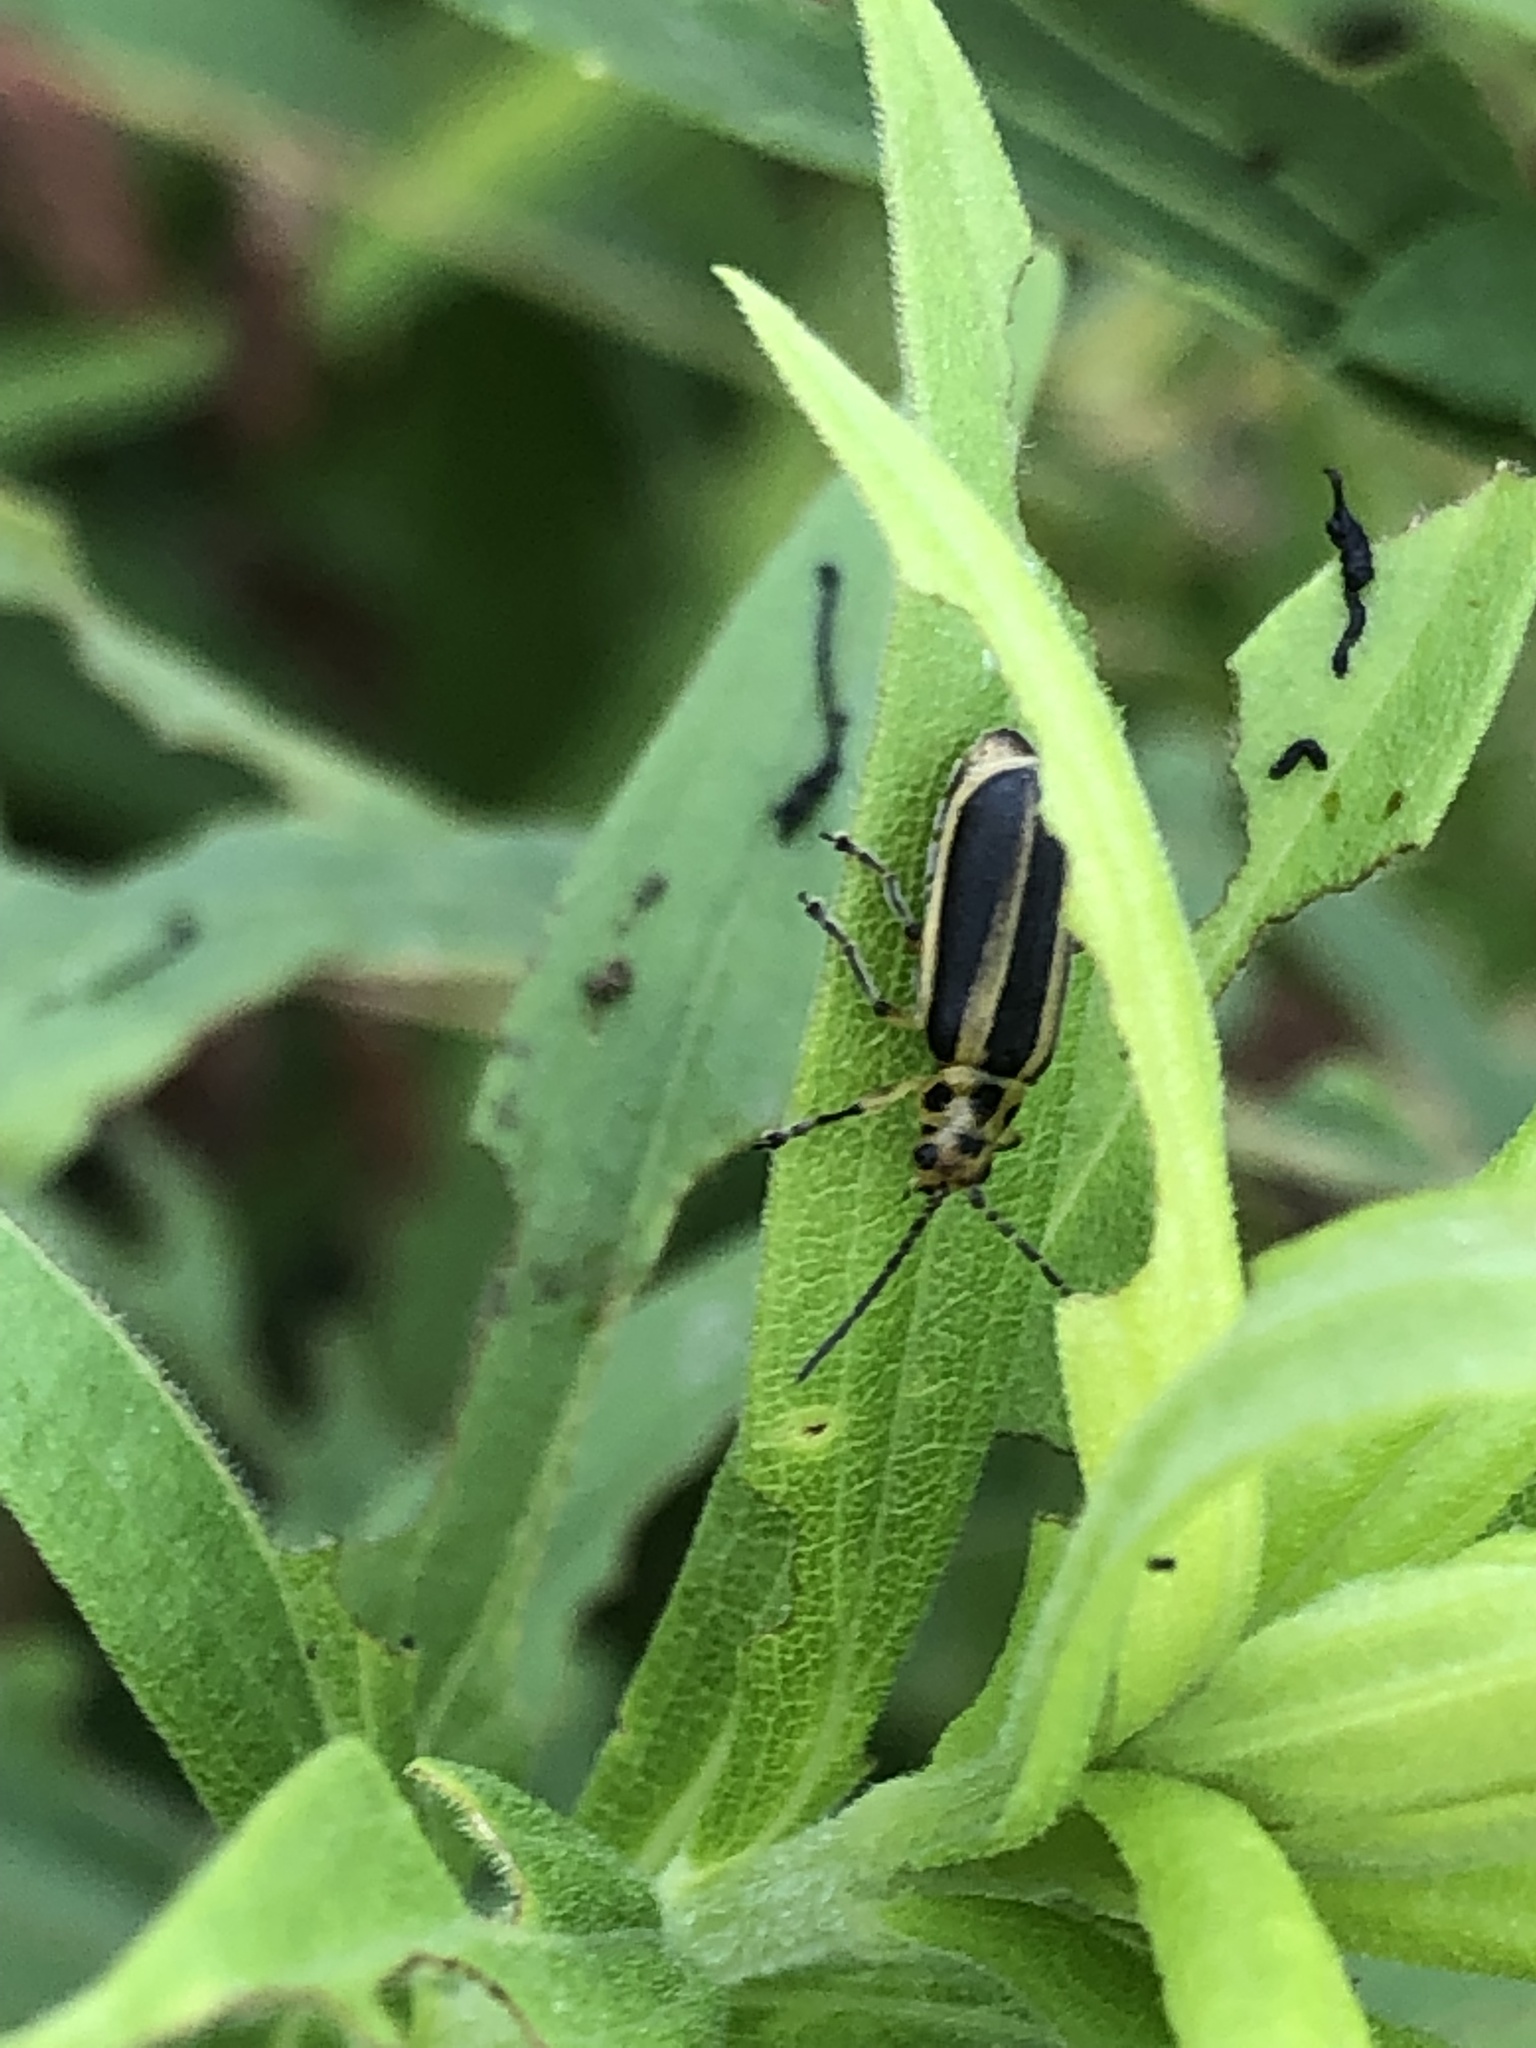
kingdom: Animalia
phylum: Arthropoda
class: Insecta
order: Coleoptera
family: Chrysomelidae
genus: Trirhabda
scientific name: Trirhabda canadensis
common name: Goldenrod leaf beetle
